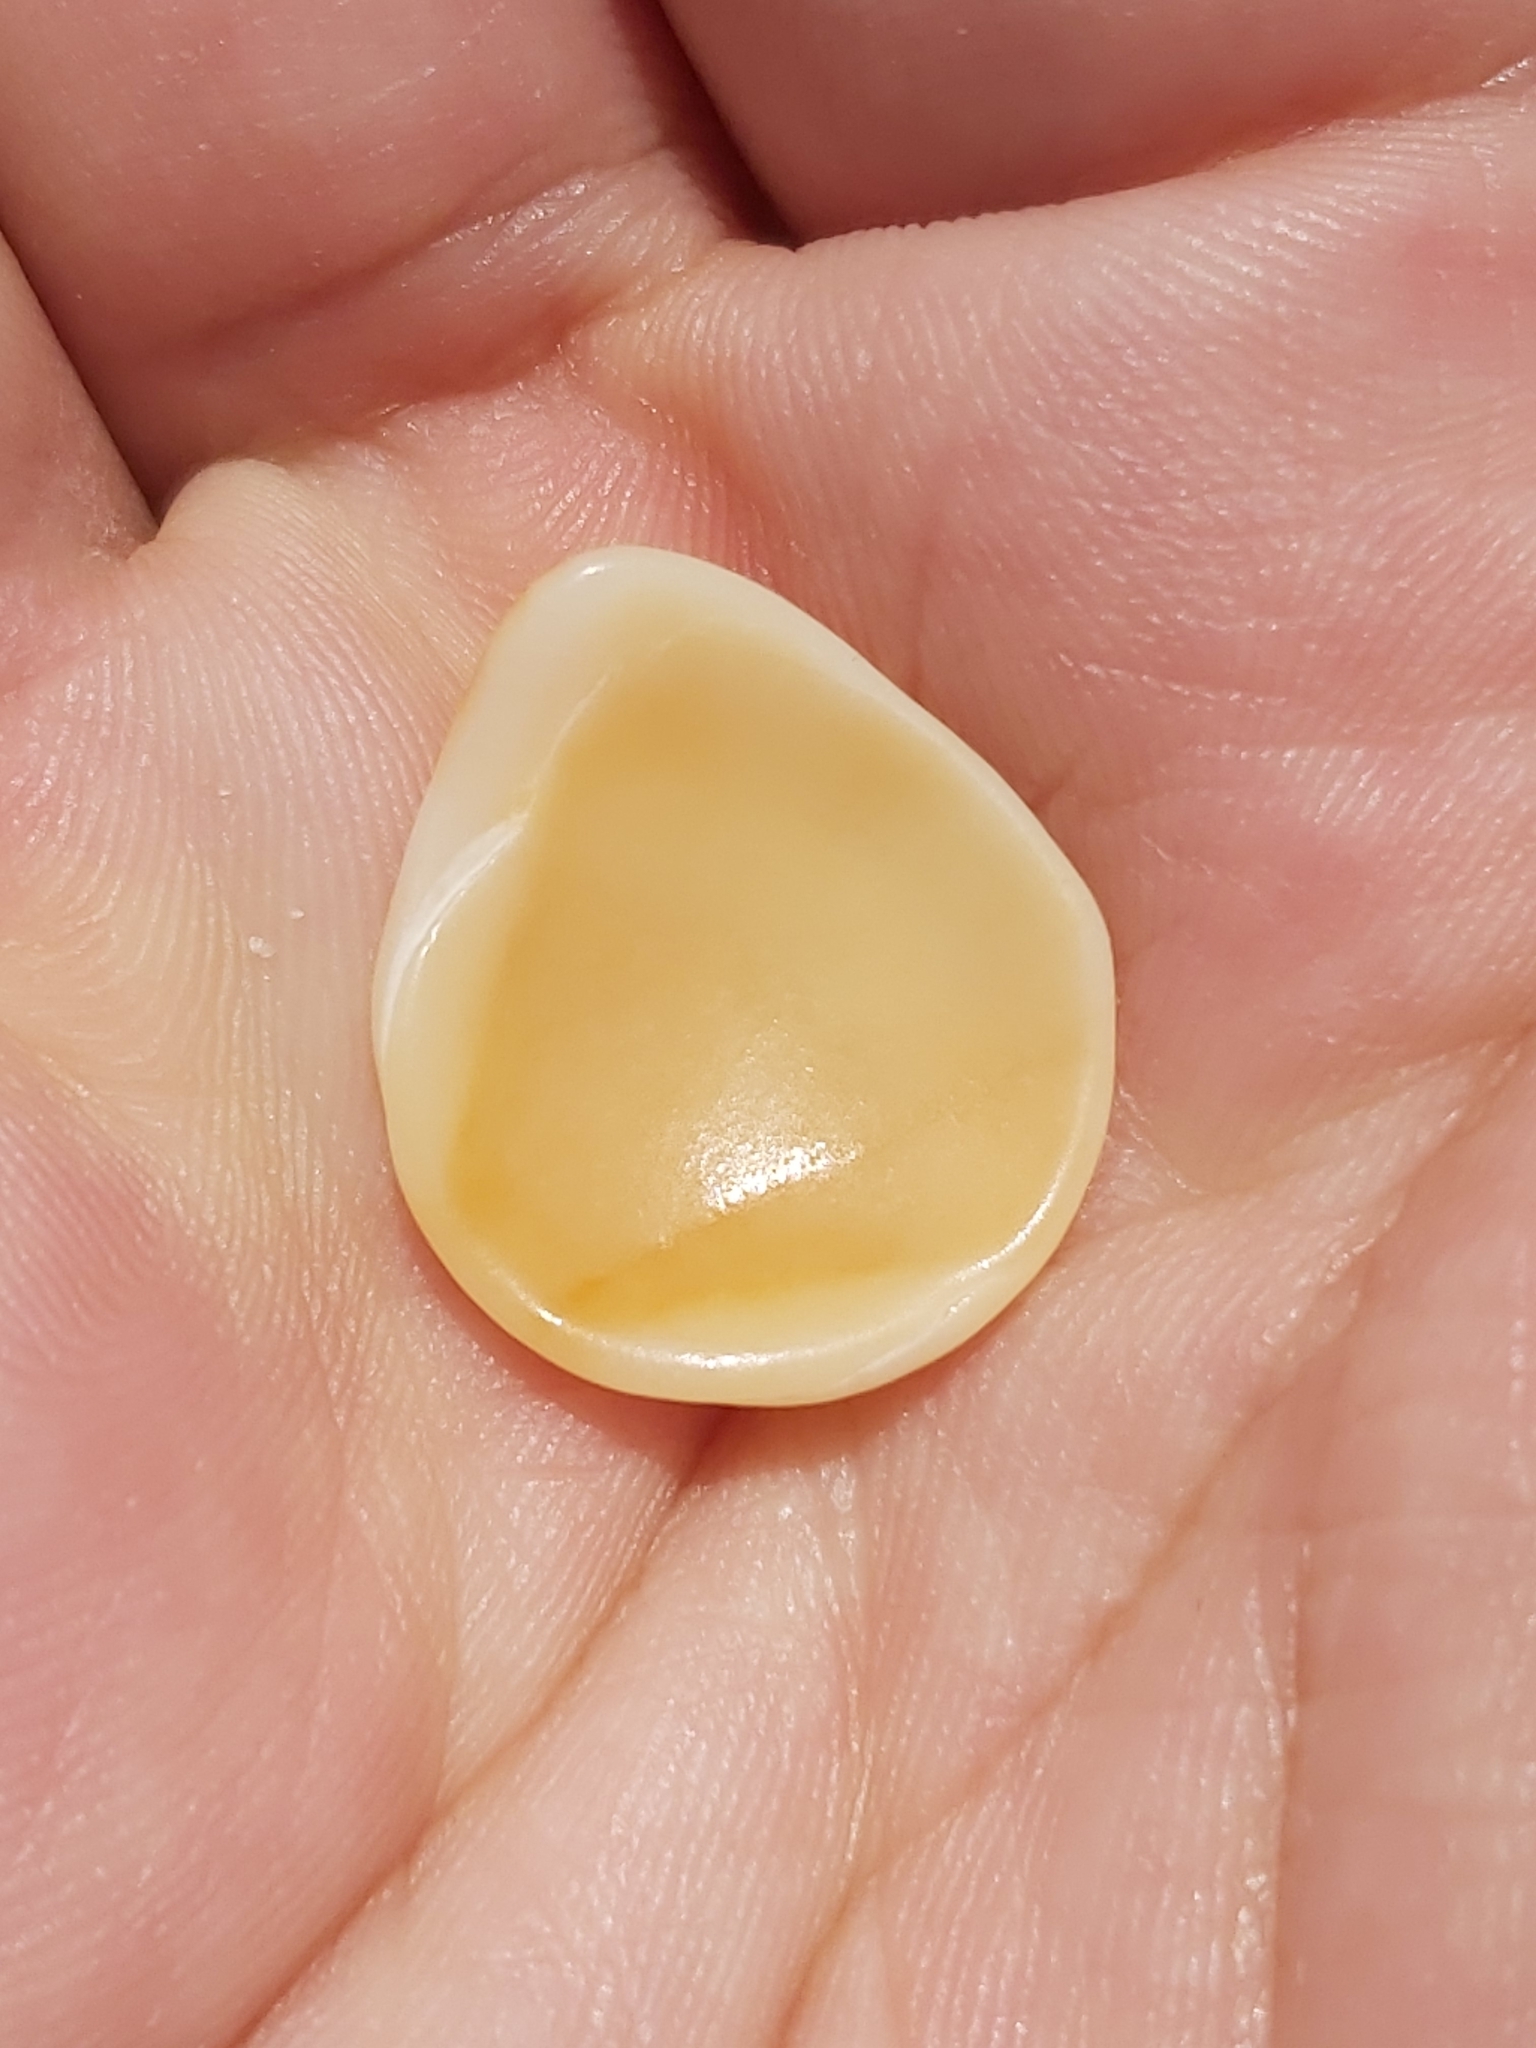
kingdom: Animalia
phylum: Mollusca
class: Bivalvia
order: Arcida
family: Glycymerididae
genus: Glycymeris
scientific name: Glycymeris grayana
